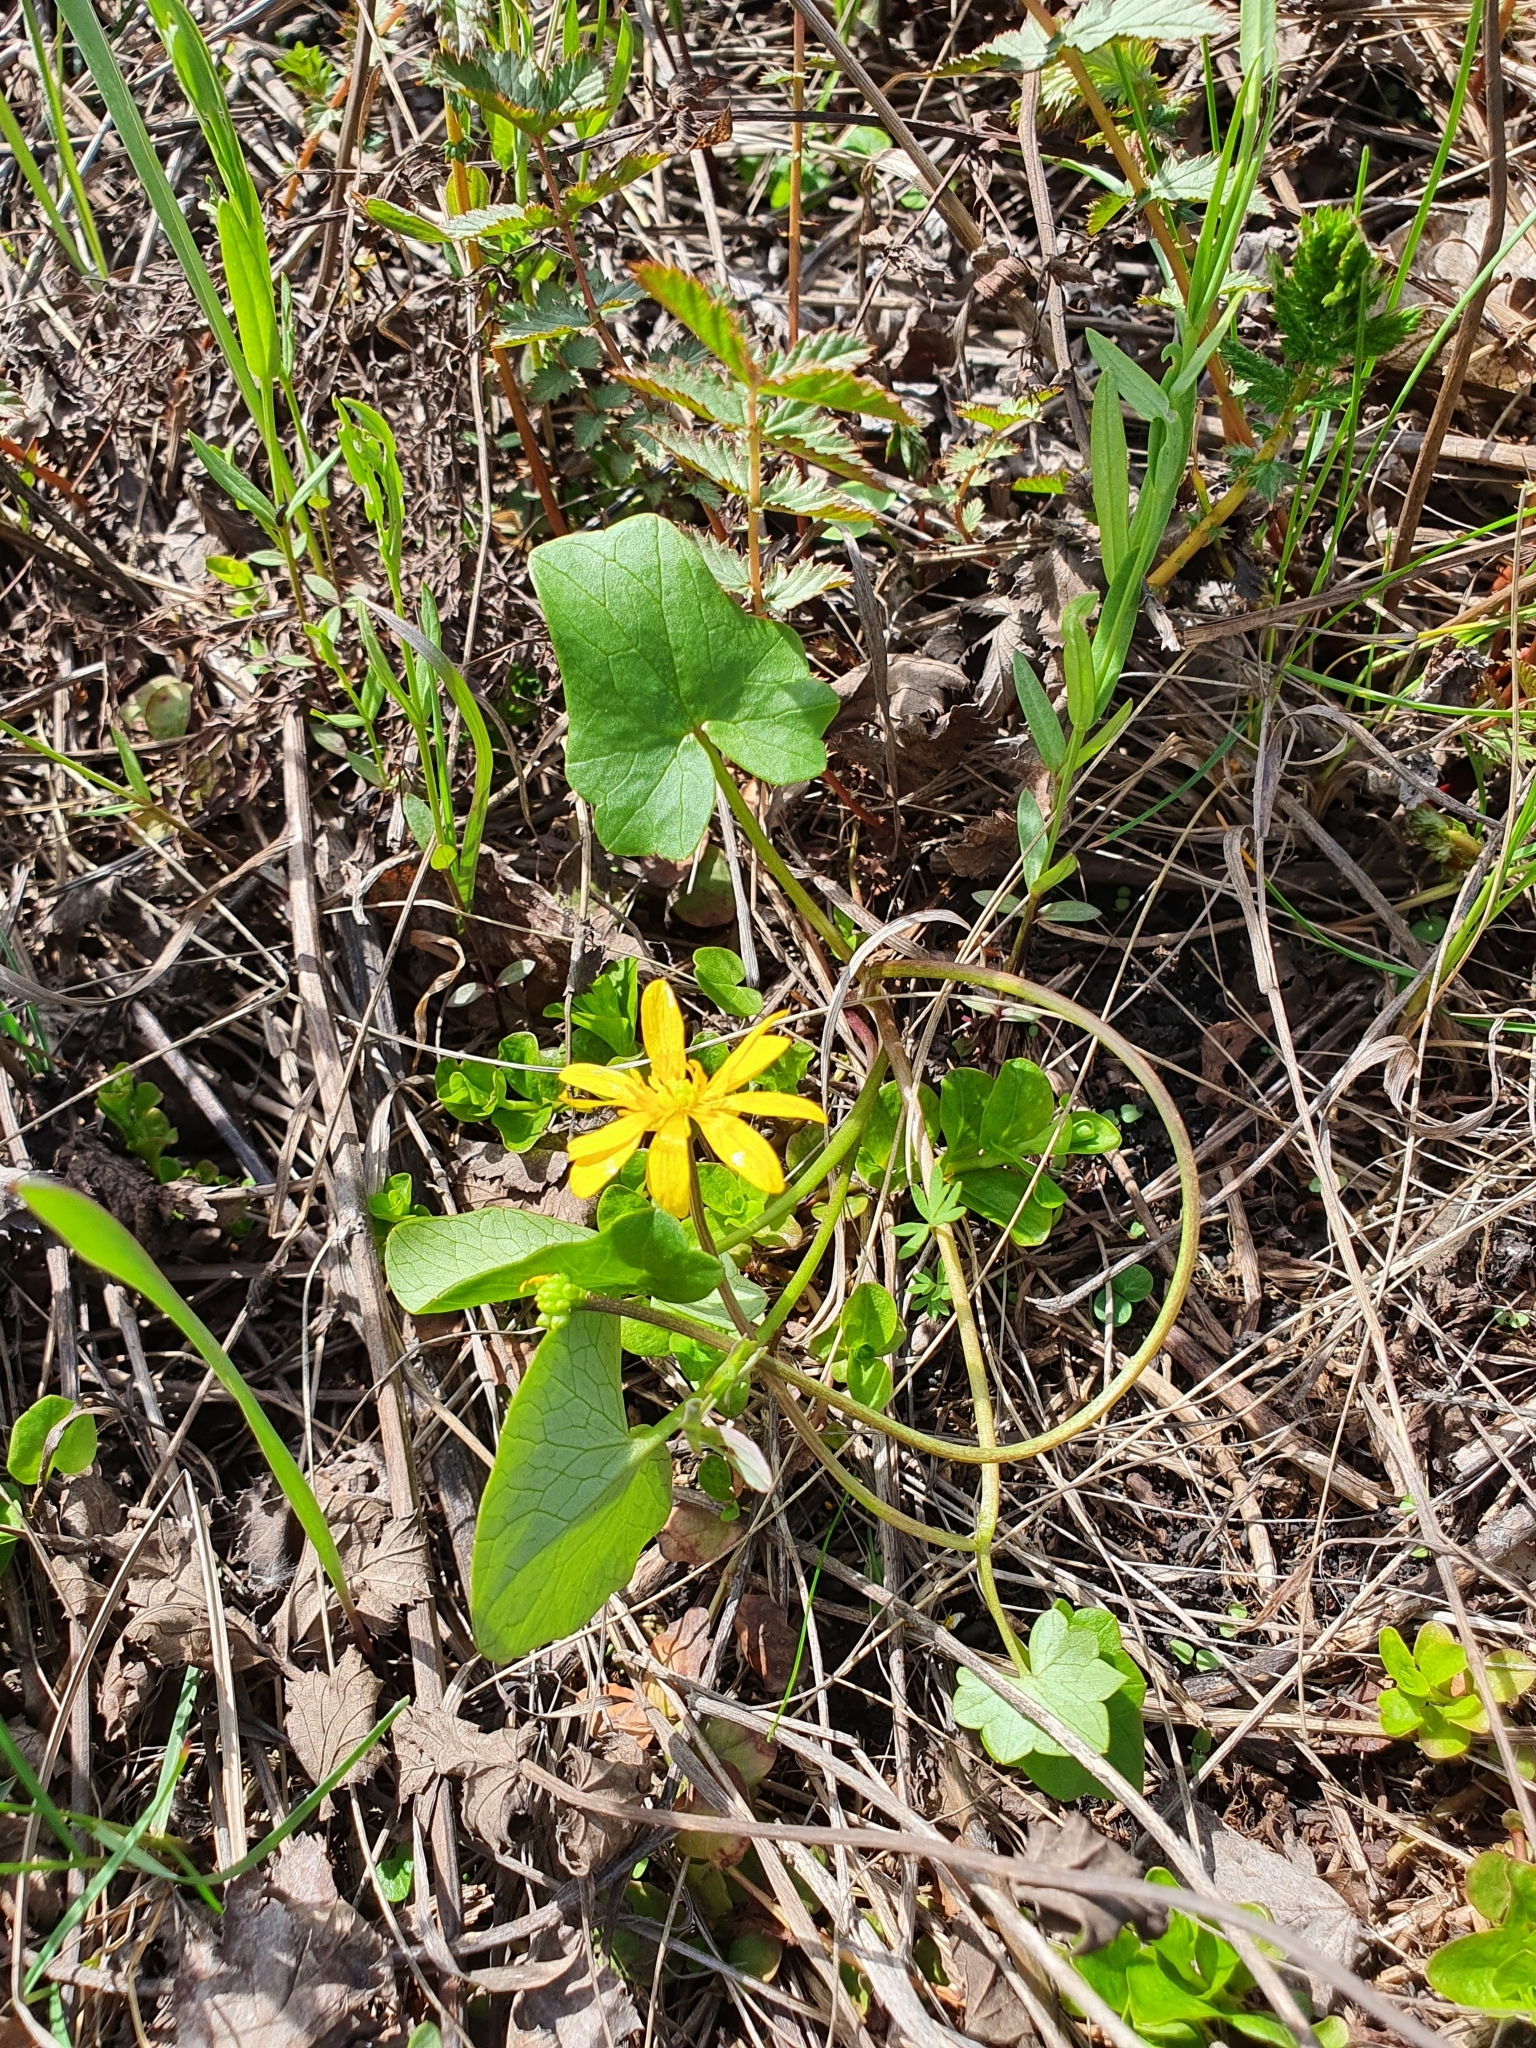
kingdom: Plantae
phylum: Tracheophyta
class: Magnoliopsida
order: Ranunculales
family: Ranunculaceae
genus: Ficaria
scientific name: Ficaria
